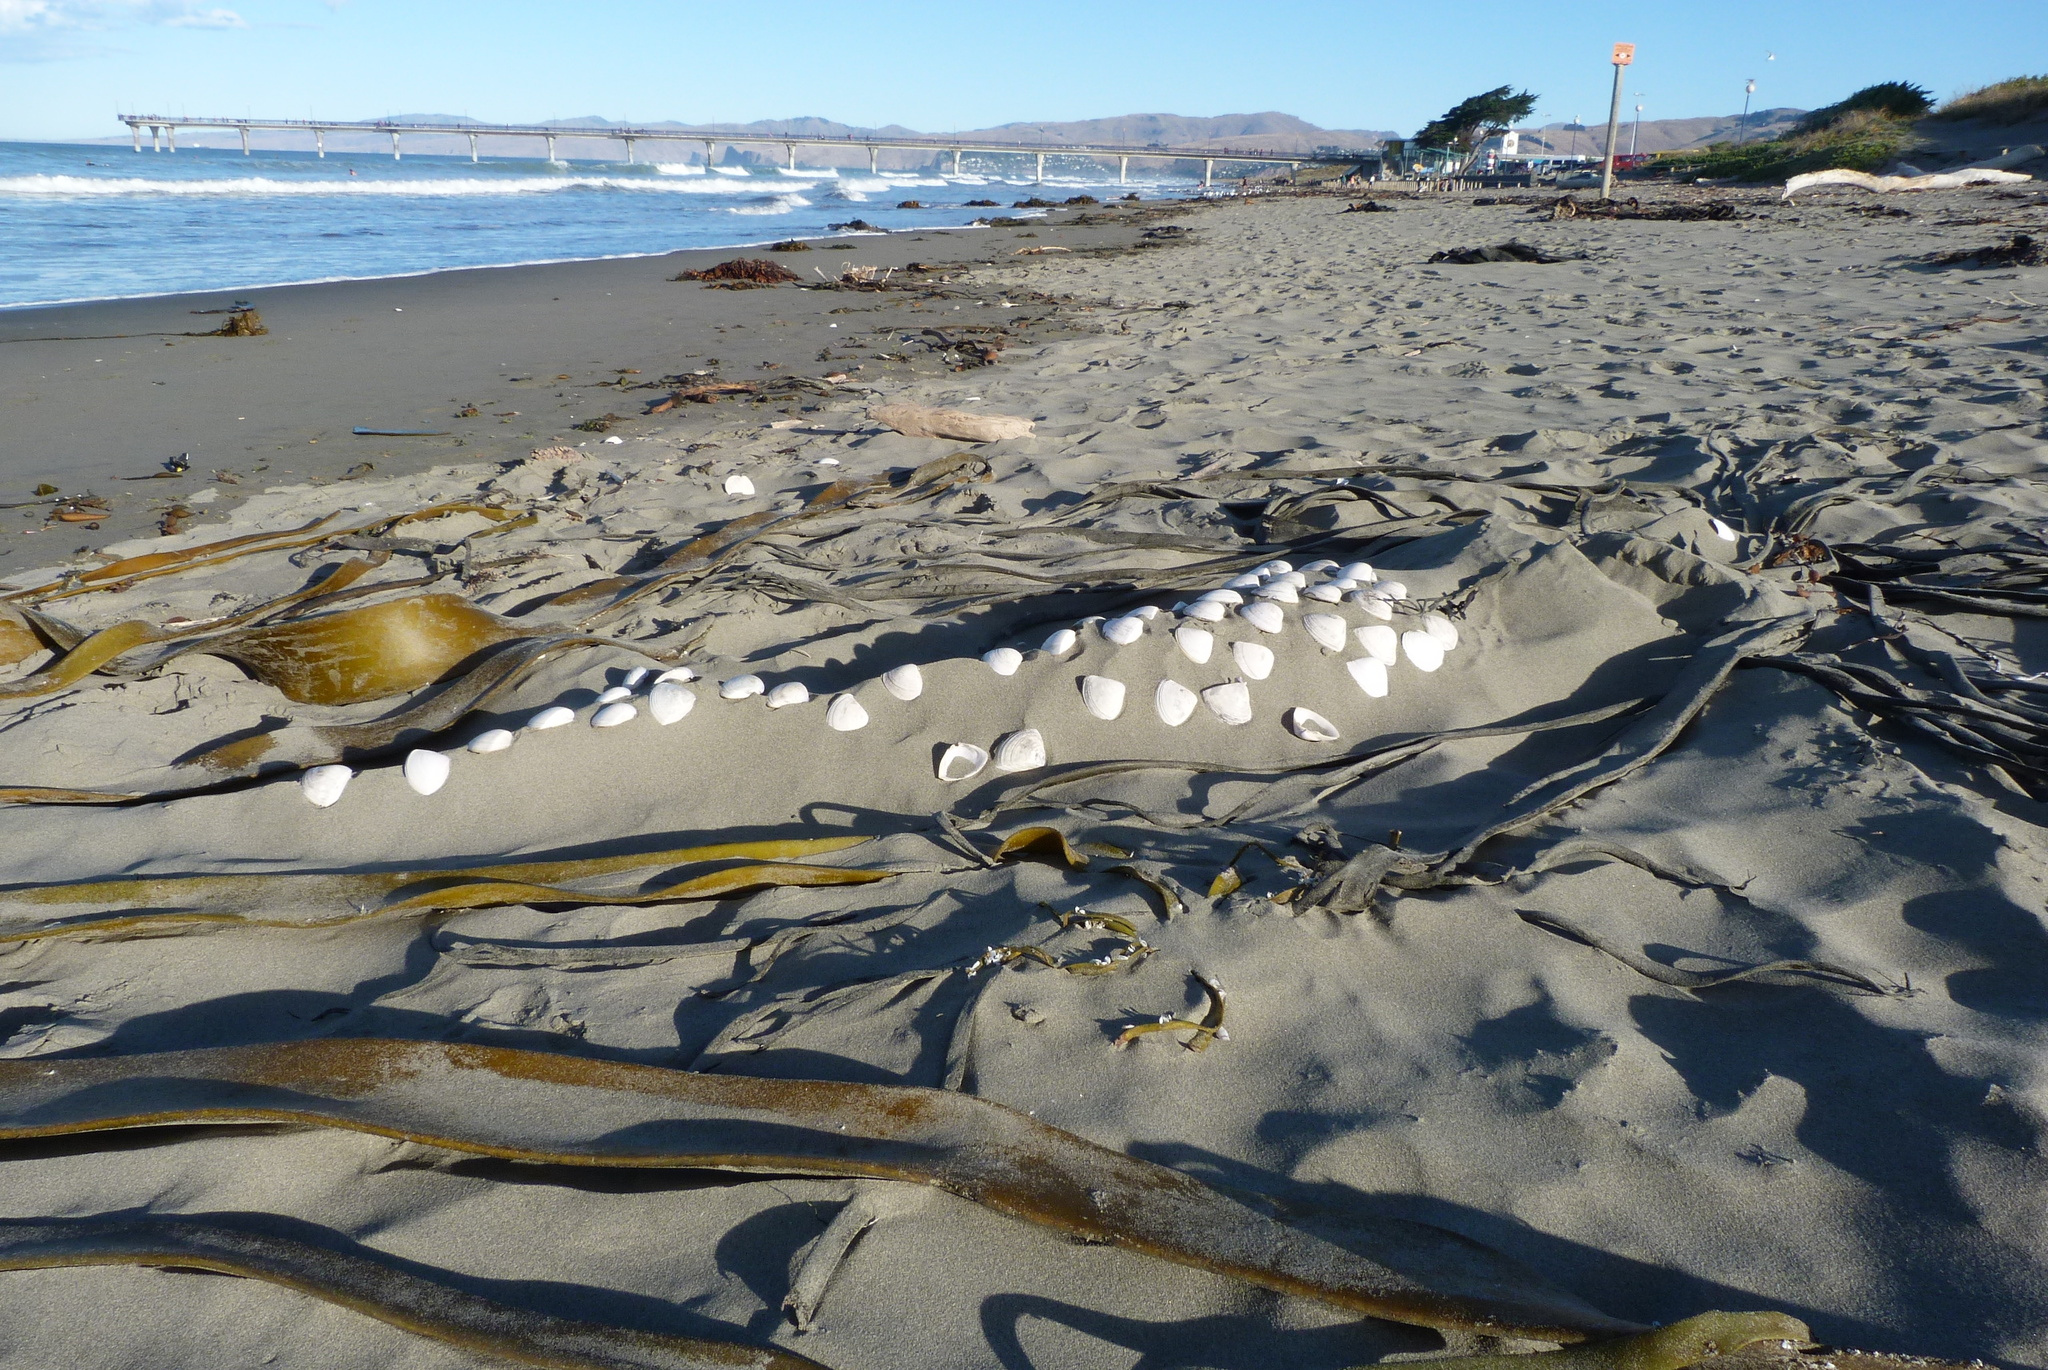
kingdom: Animalia
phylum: Mollusca
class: Bivalvia
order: Venerida
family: Mactridae
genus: Crassula
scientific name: Crassula aequilatera
